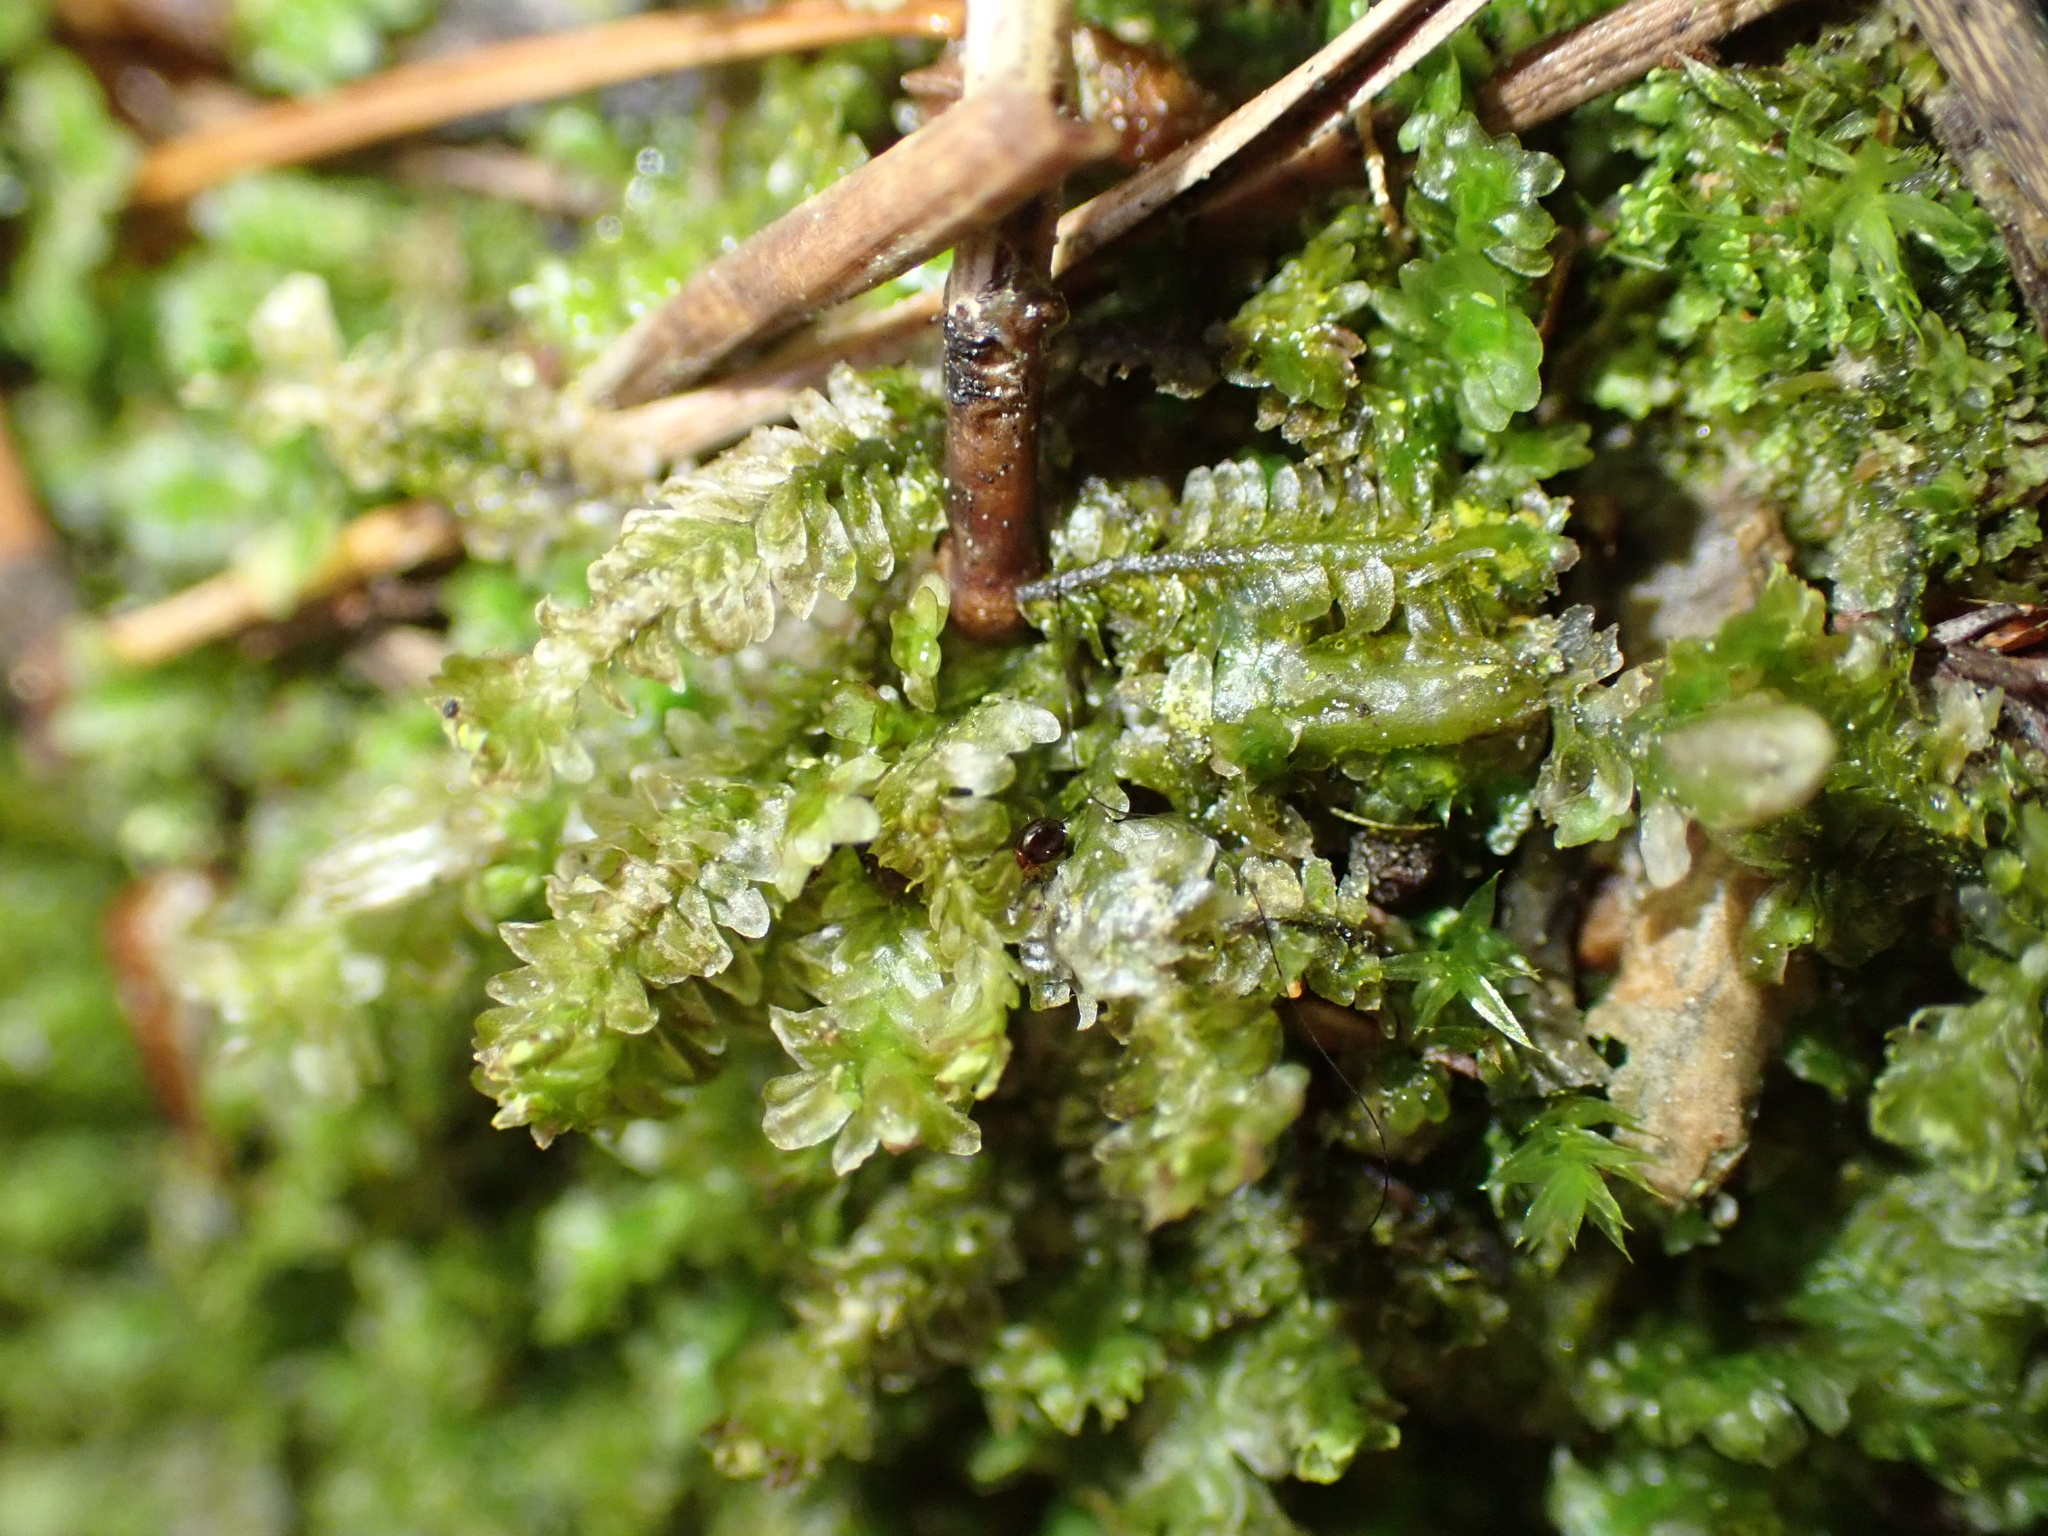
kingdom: Plantae
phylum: Marchantiophyta
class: Jungermanniopsida
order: Jungermanniales
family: Scapaniaceae
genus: Diplophyllum
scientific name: Diplophyllum albicans
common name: White earwort
